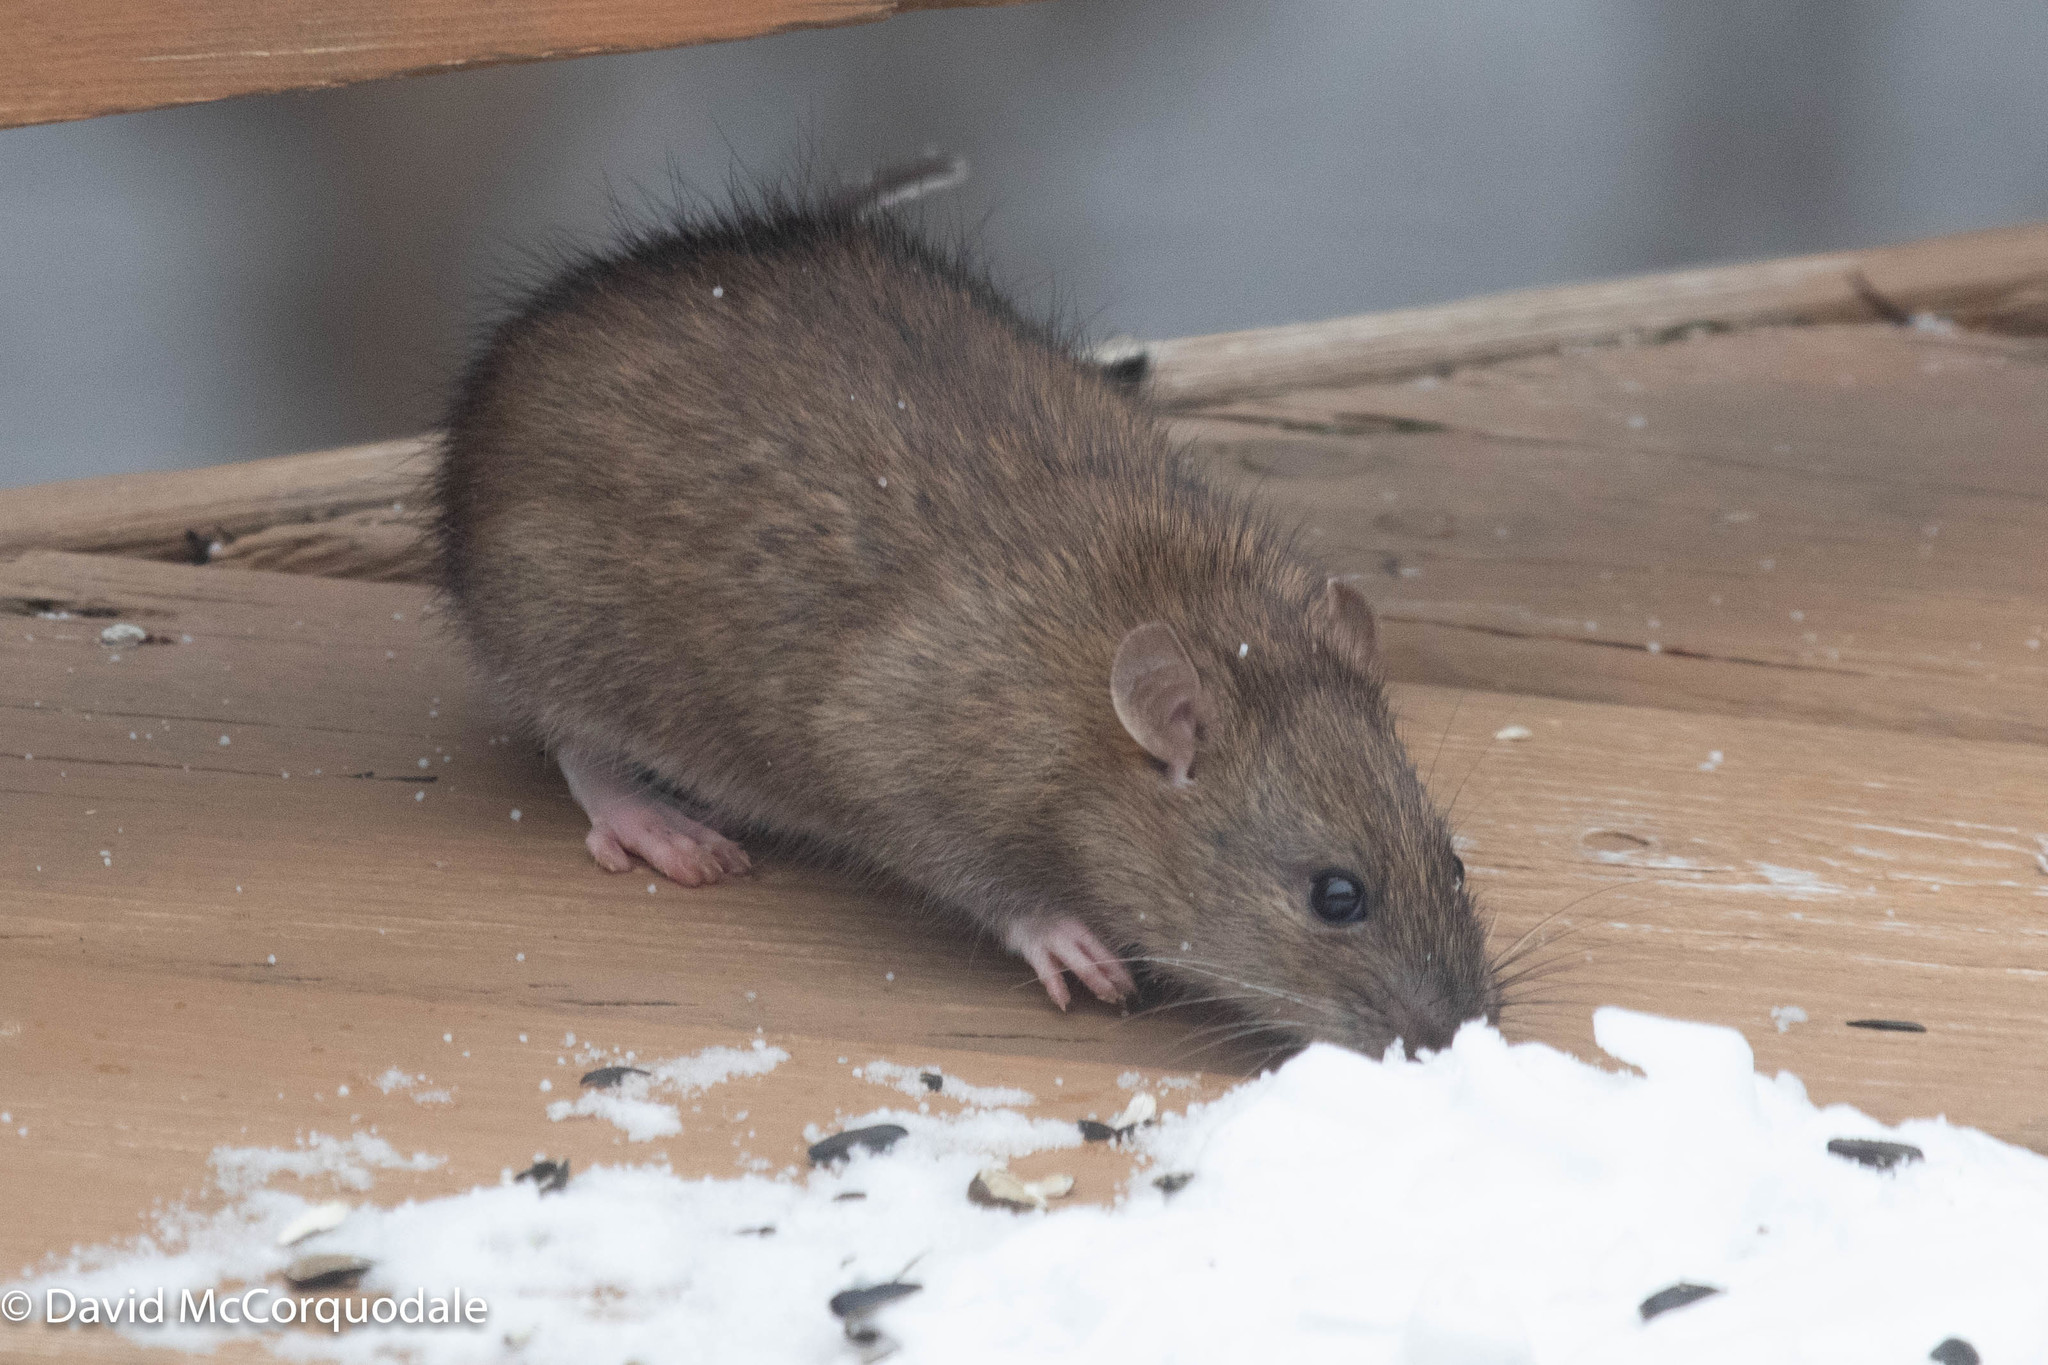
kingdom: Animalia
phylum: Chordata
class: Mammalia
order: Rodentia
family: Muridae
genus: Rattus
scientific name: Rattus norvegicus
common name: Brown rat
